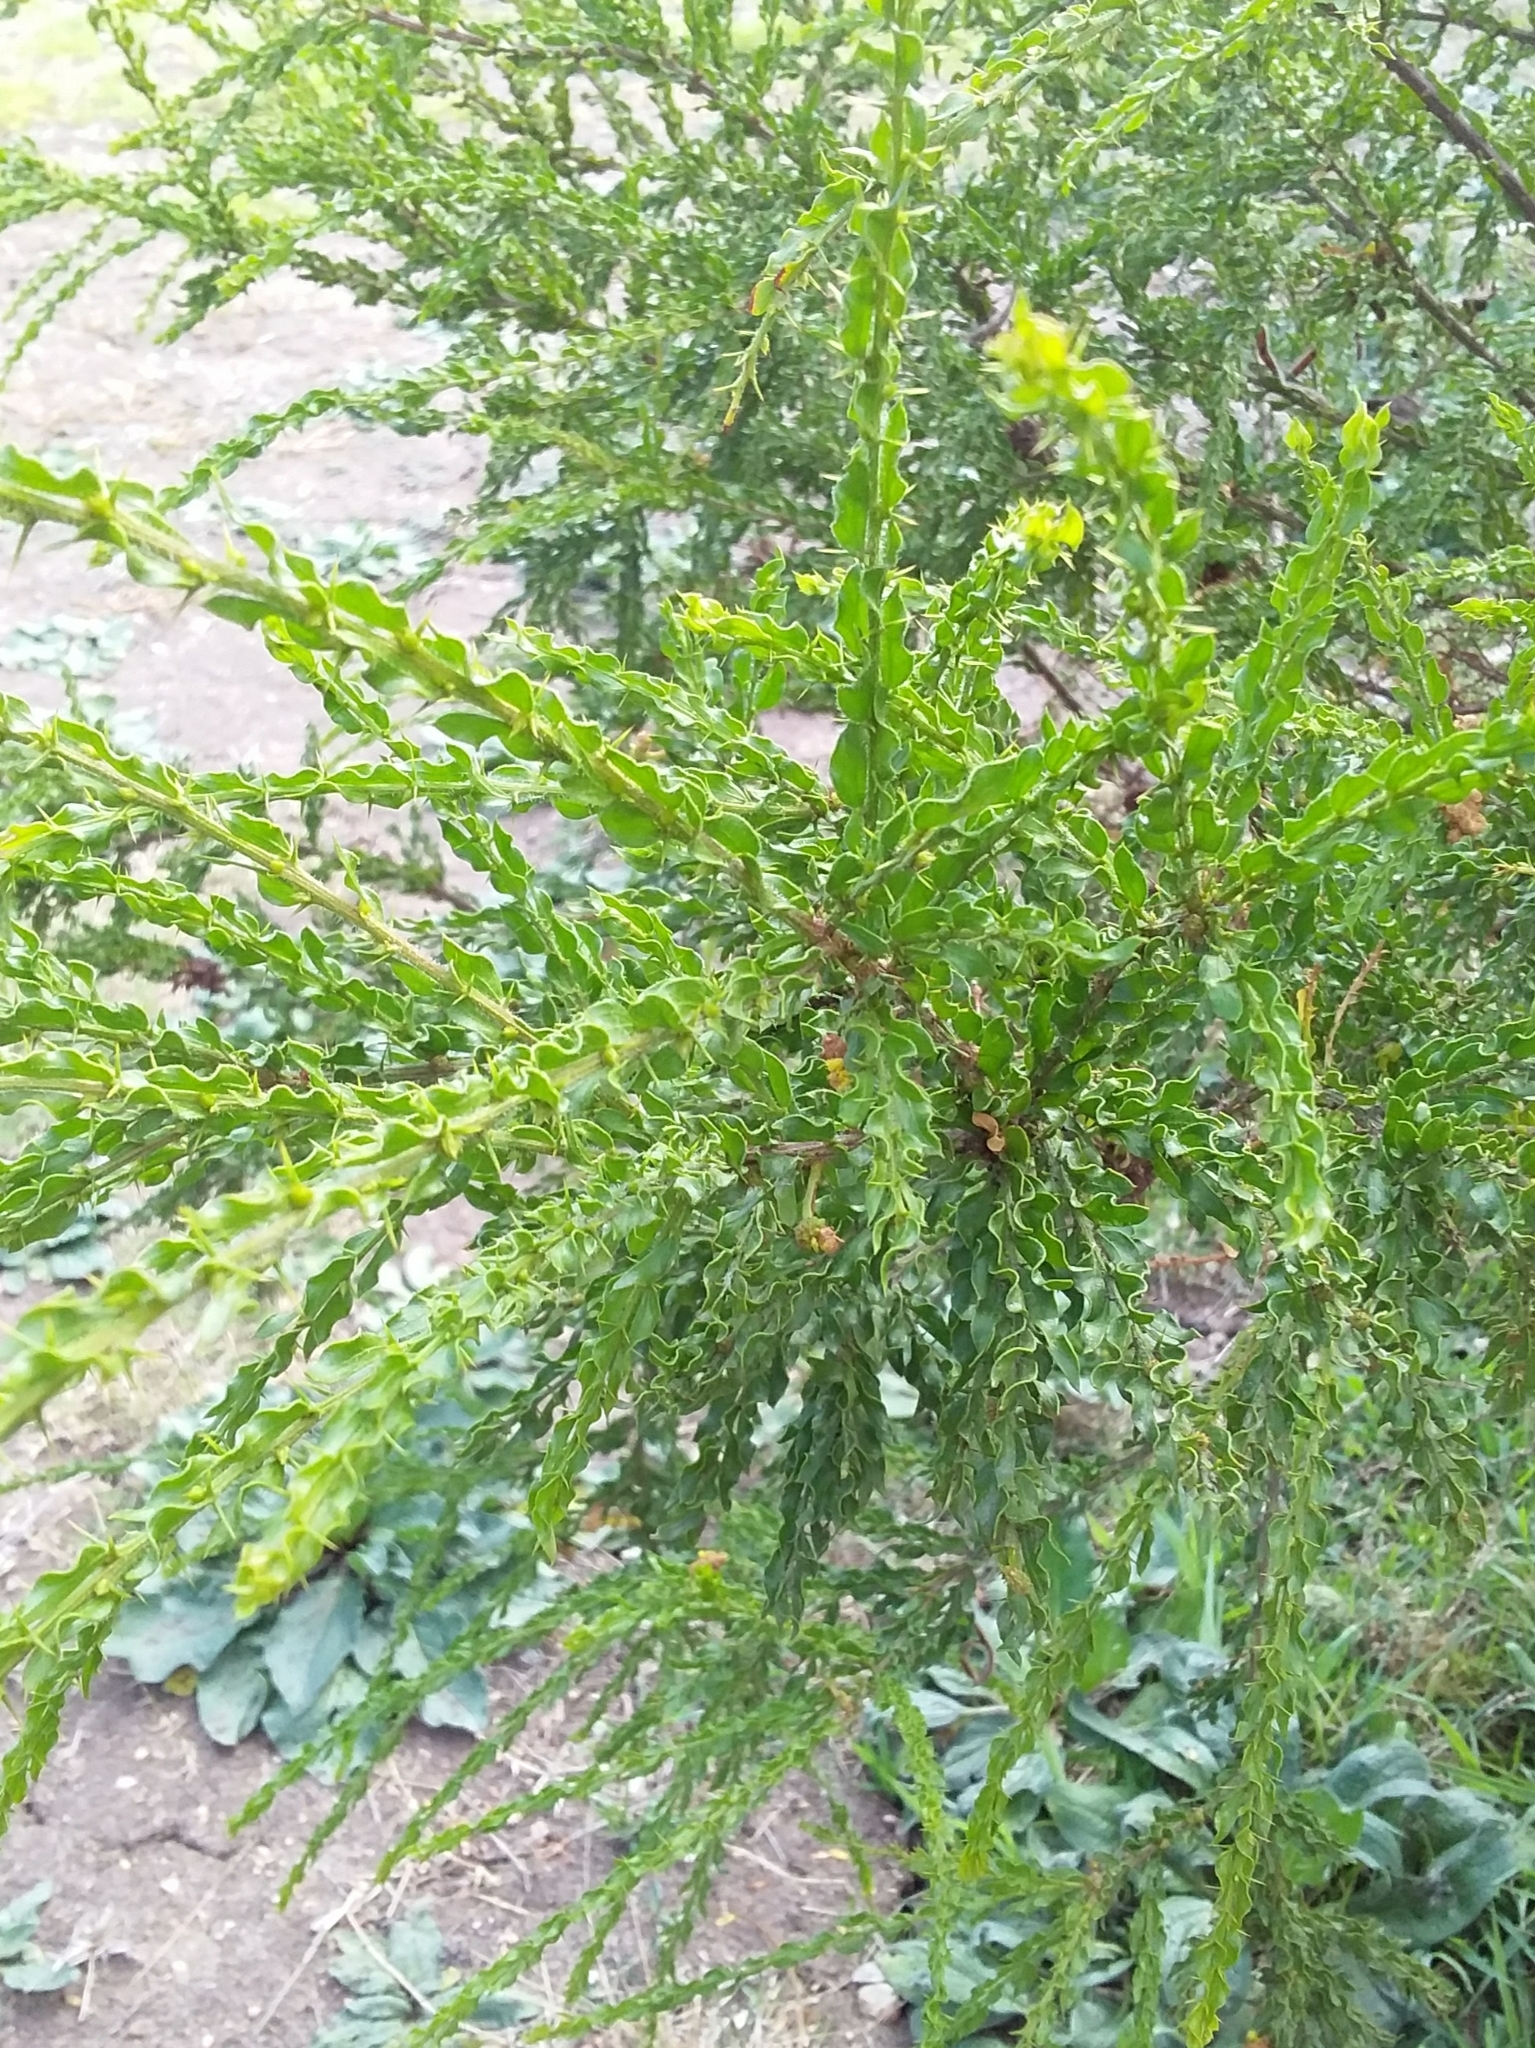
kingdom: Plantae
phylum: Tracheophyta
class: Magnoliopsida
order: Fabales
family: Fabaceae
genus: Acacia
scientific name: Acacia paradoxa
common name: Paradox acacia
